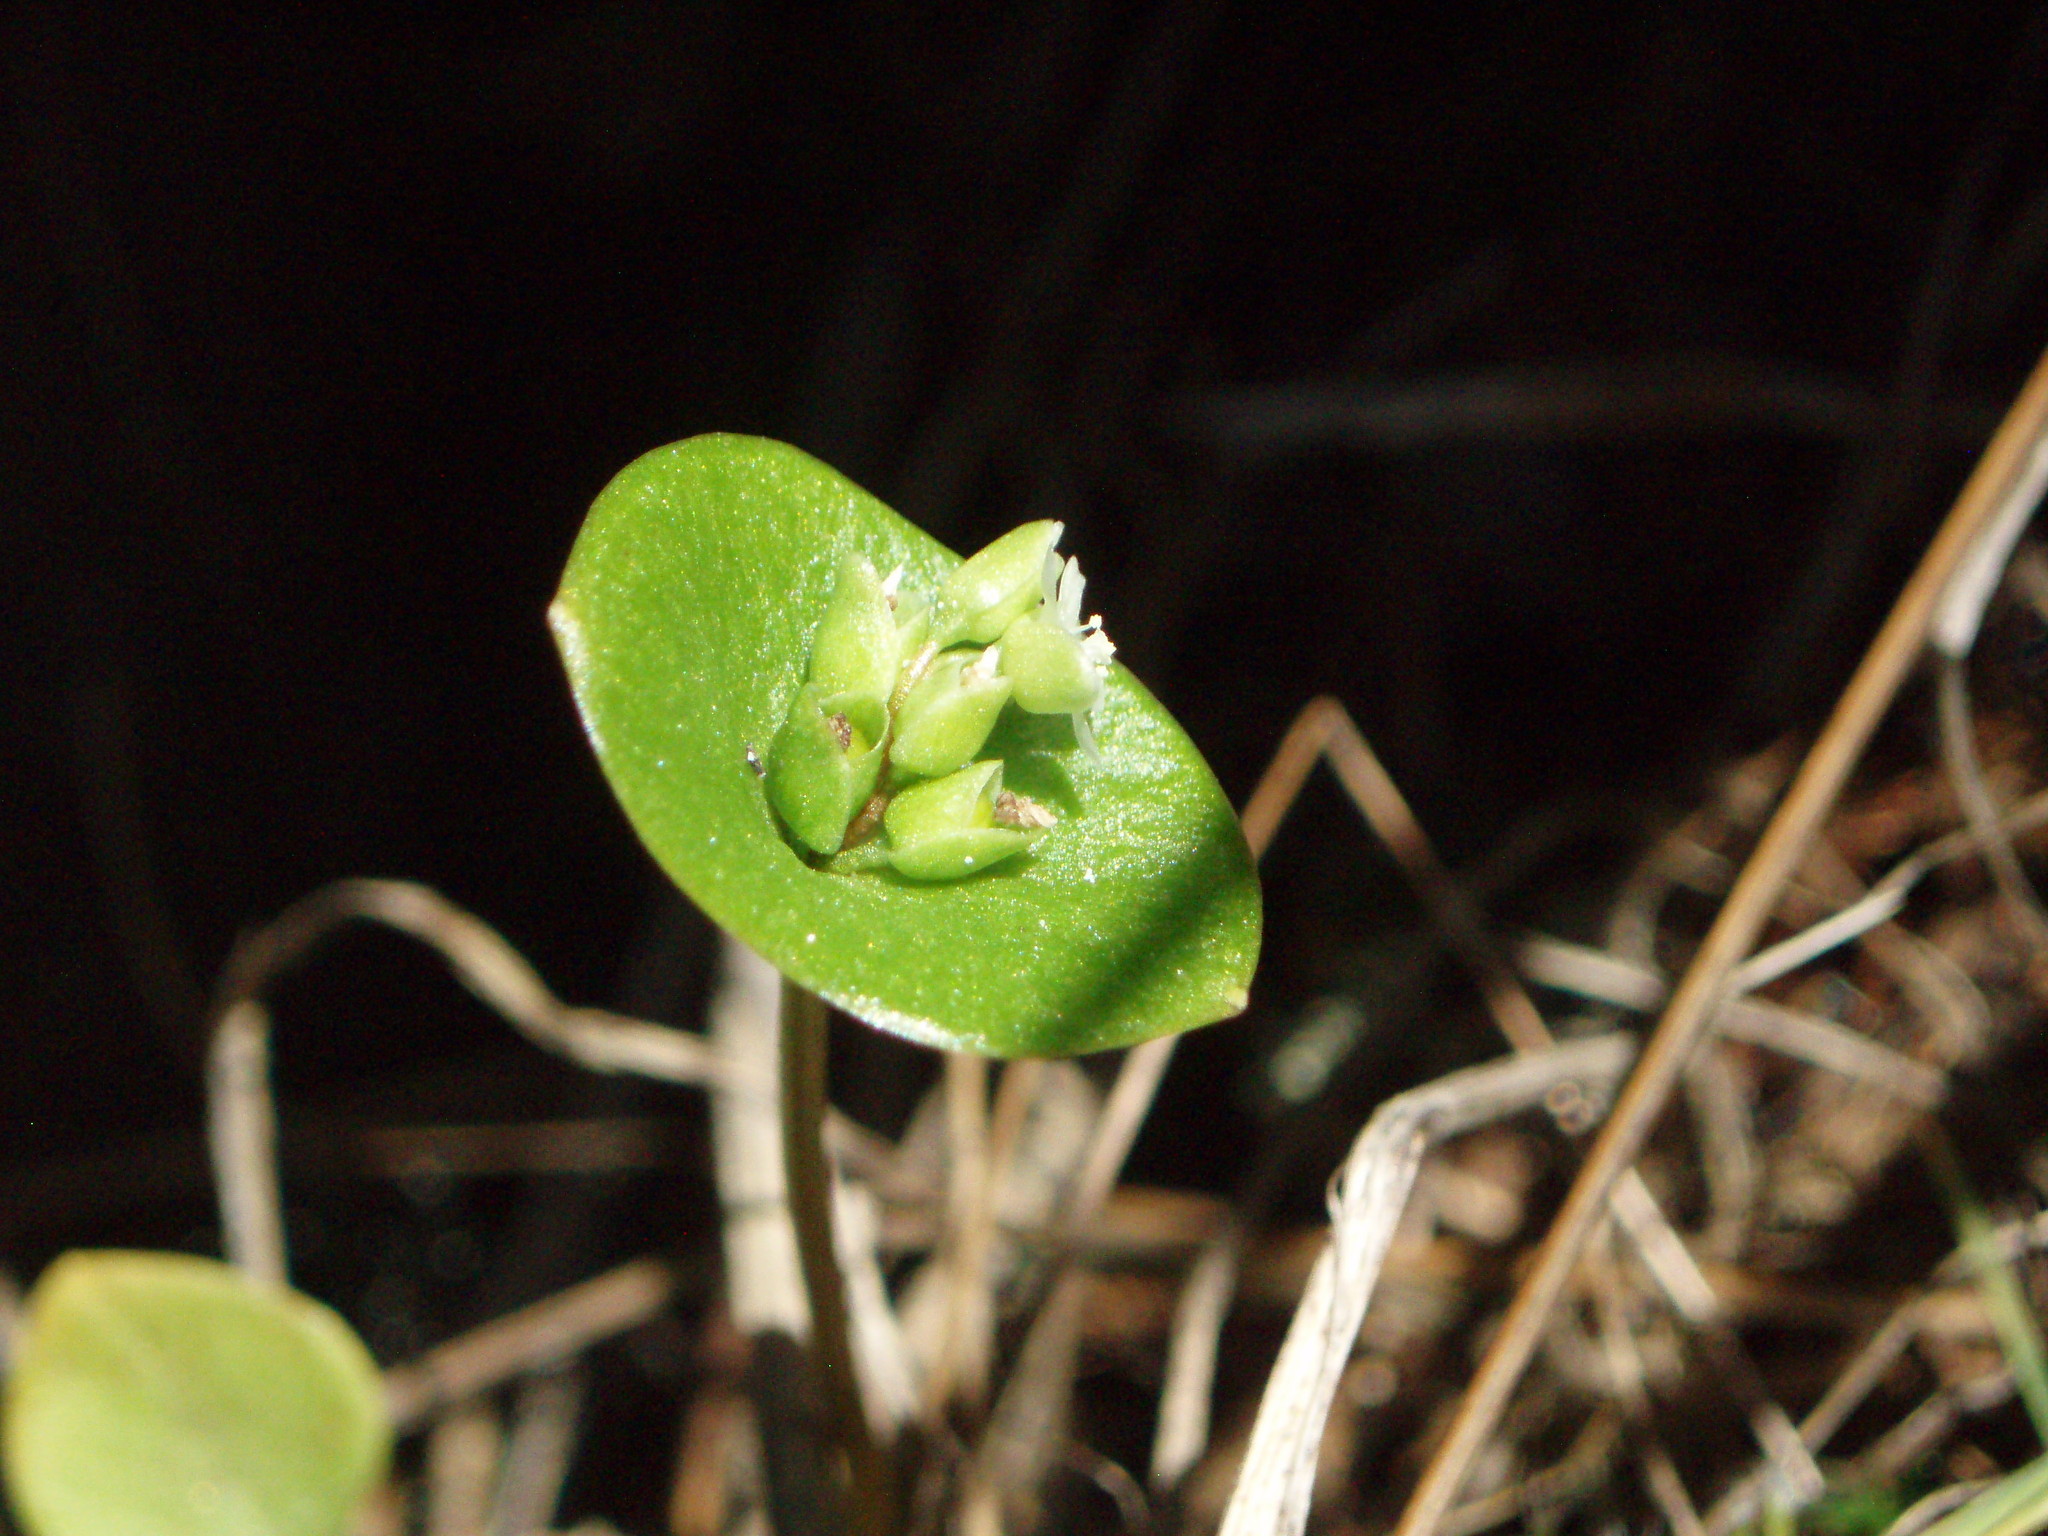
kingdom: Plantae
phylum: Tracheophyta
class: Magnoliopsida
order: Caryophyllales
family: Montiaceae
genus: Claytonia
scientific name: Claytonia perfoliata
